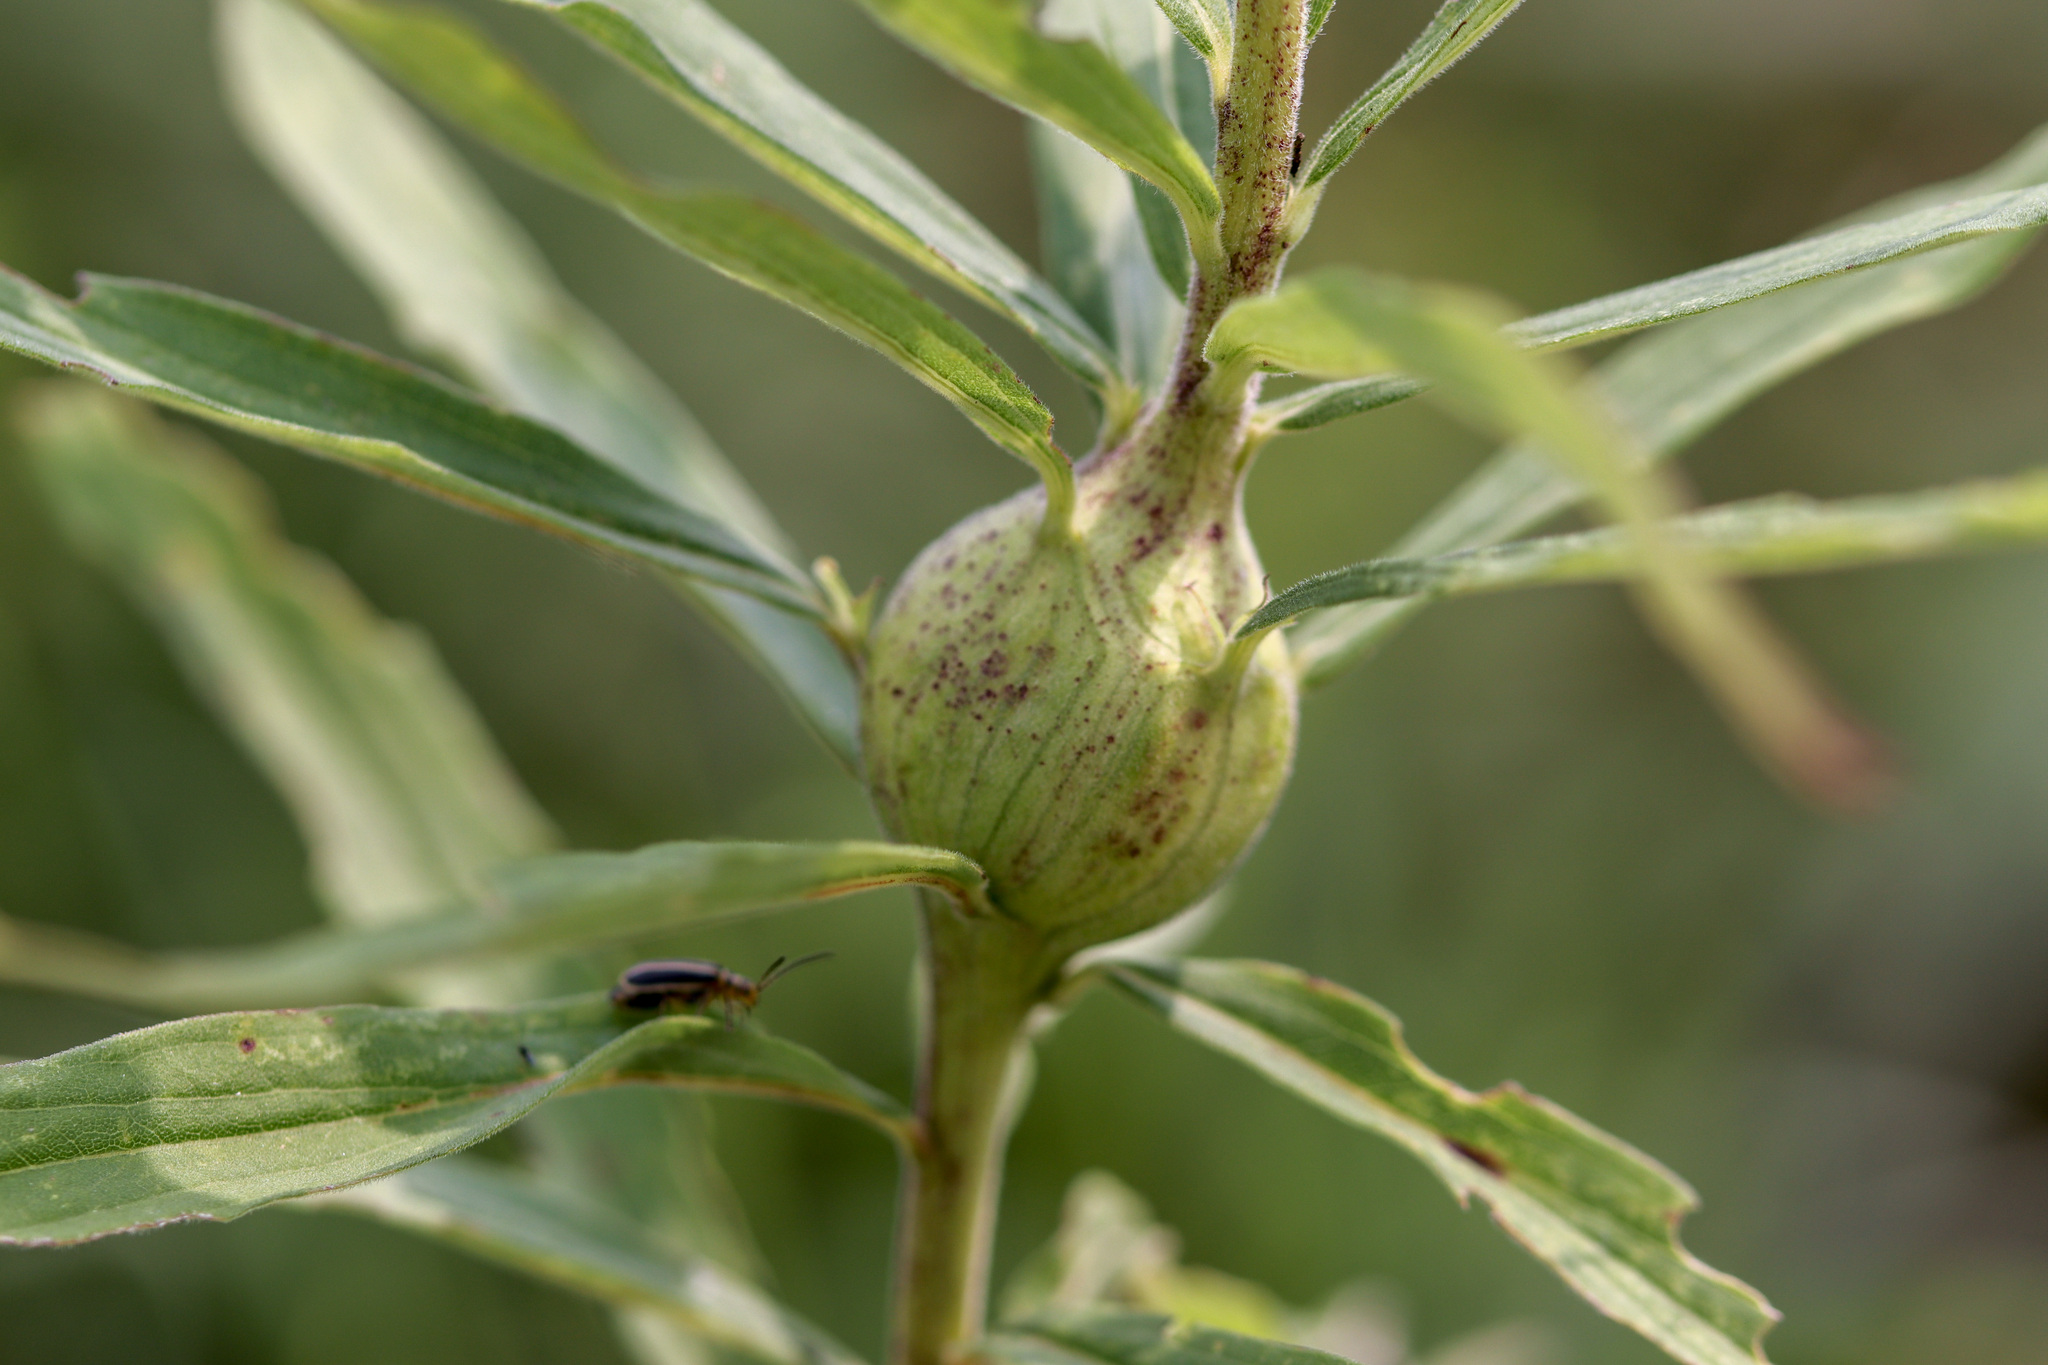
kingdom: Animalia
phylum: Arthropoda
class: Insecta
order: Diptera
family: Tephritidae
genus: Eurosta
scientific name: Eurosta solidaginis
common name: Goldenrod gall fly
